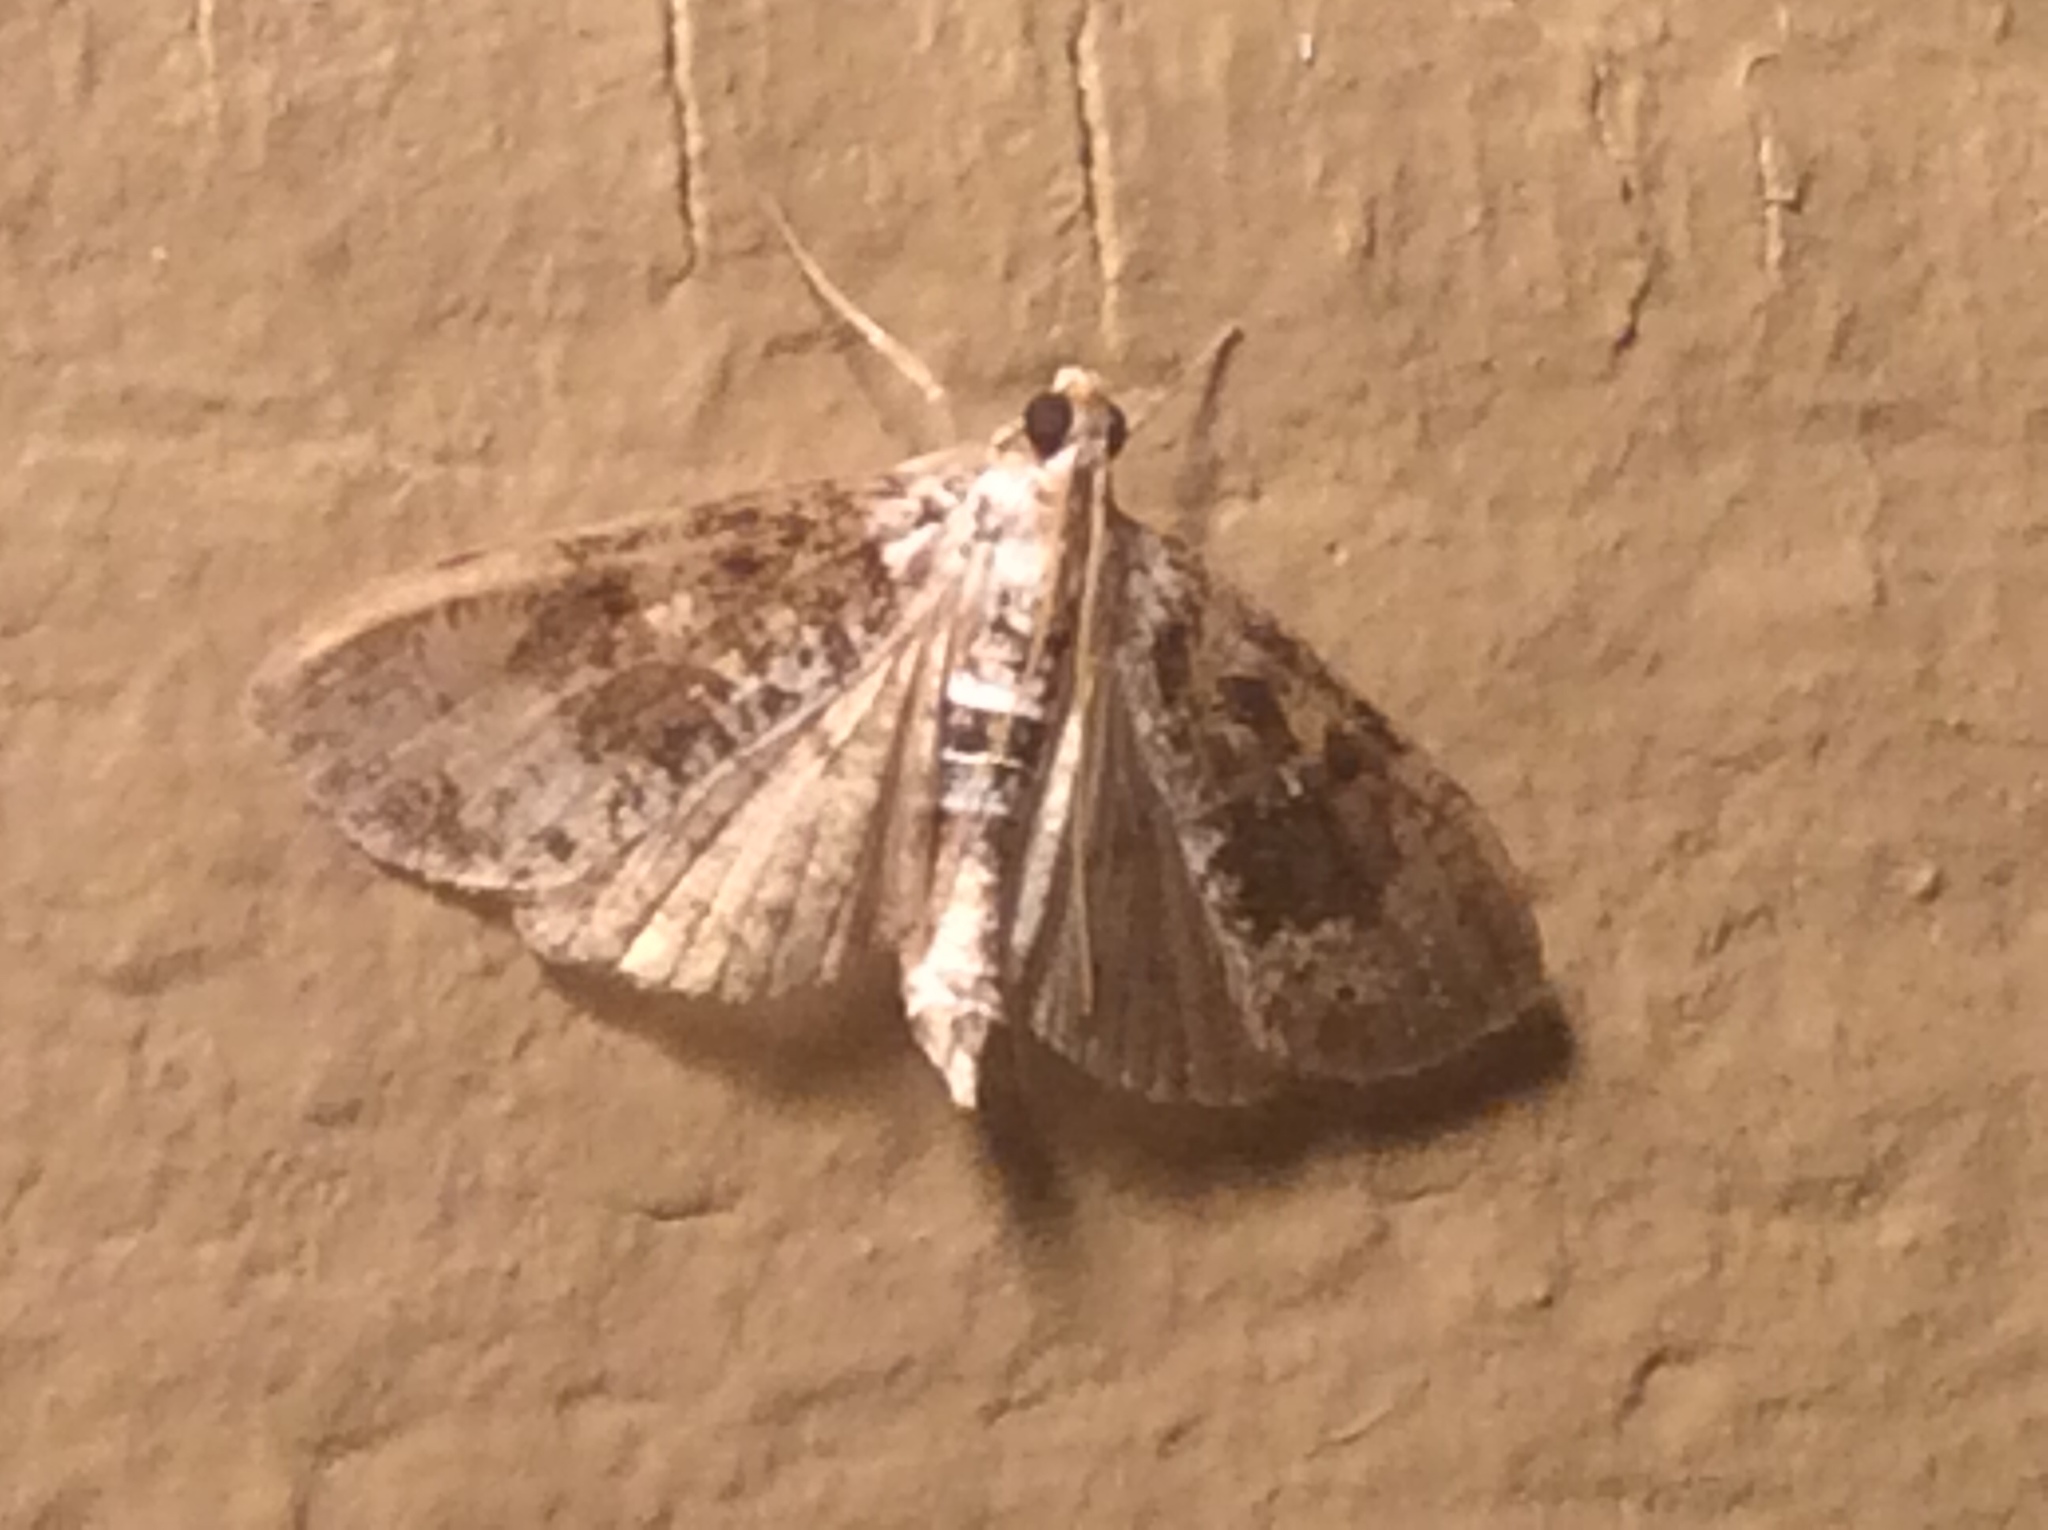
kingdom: Animalia
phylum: Arthropoda
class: Insecta
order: Lepidoptera
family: Crambidae
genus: Palpita
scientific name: Palpita magniferalis
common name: Splendid palpita moth
